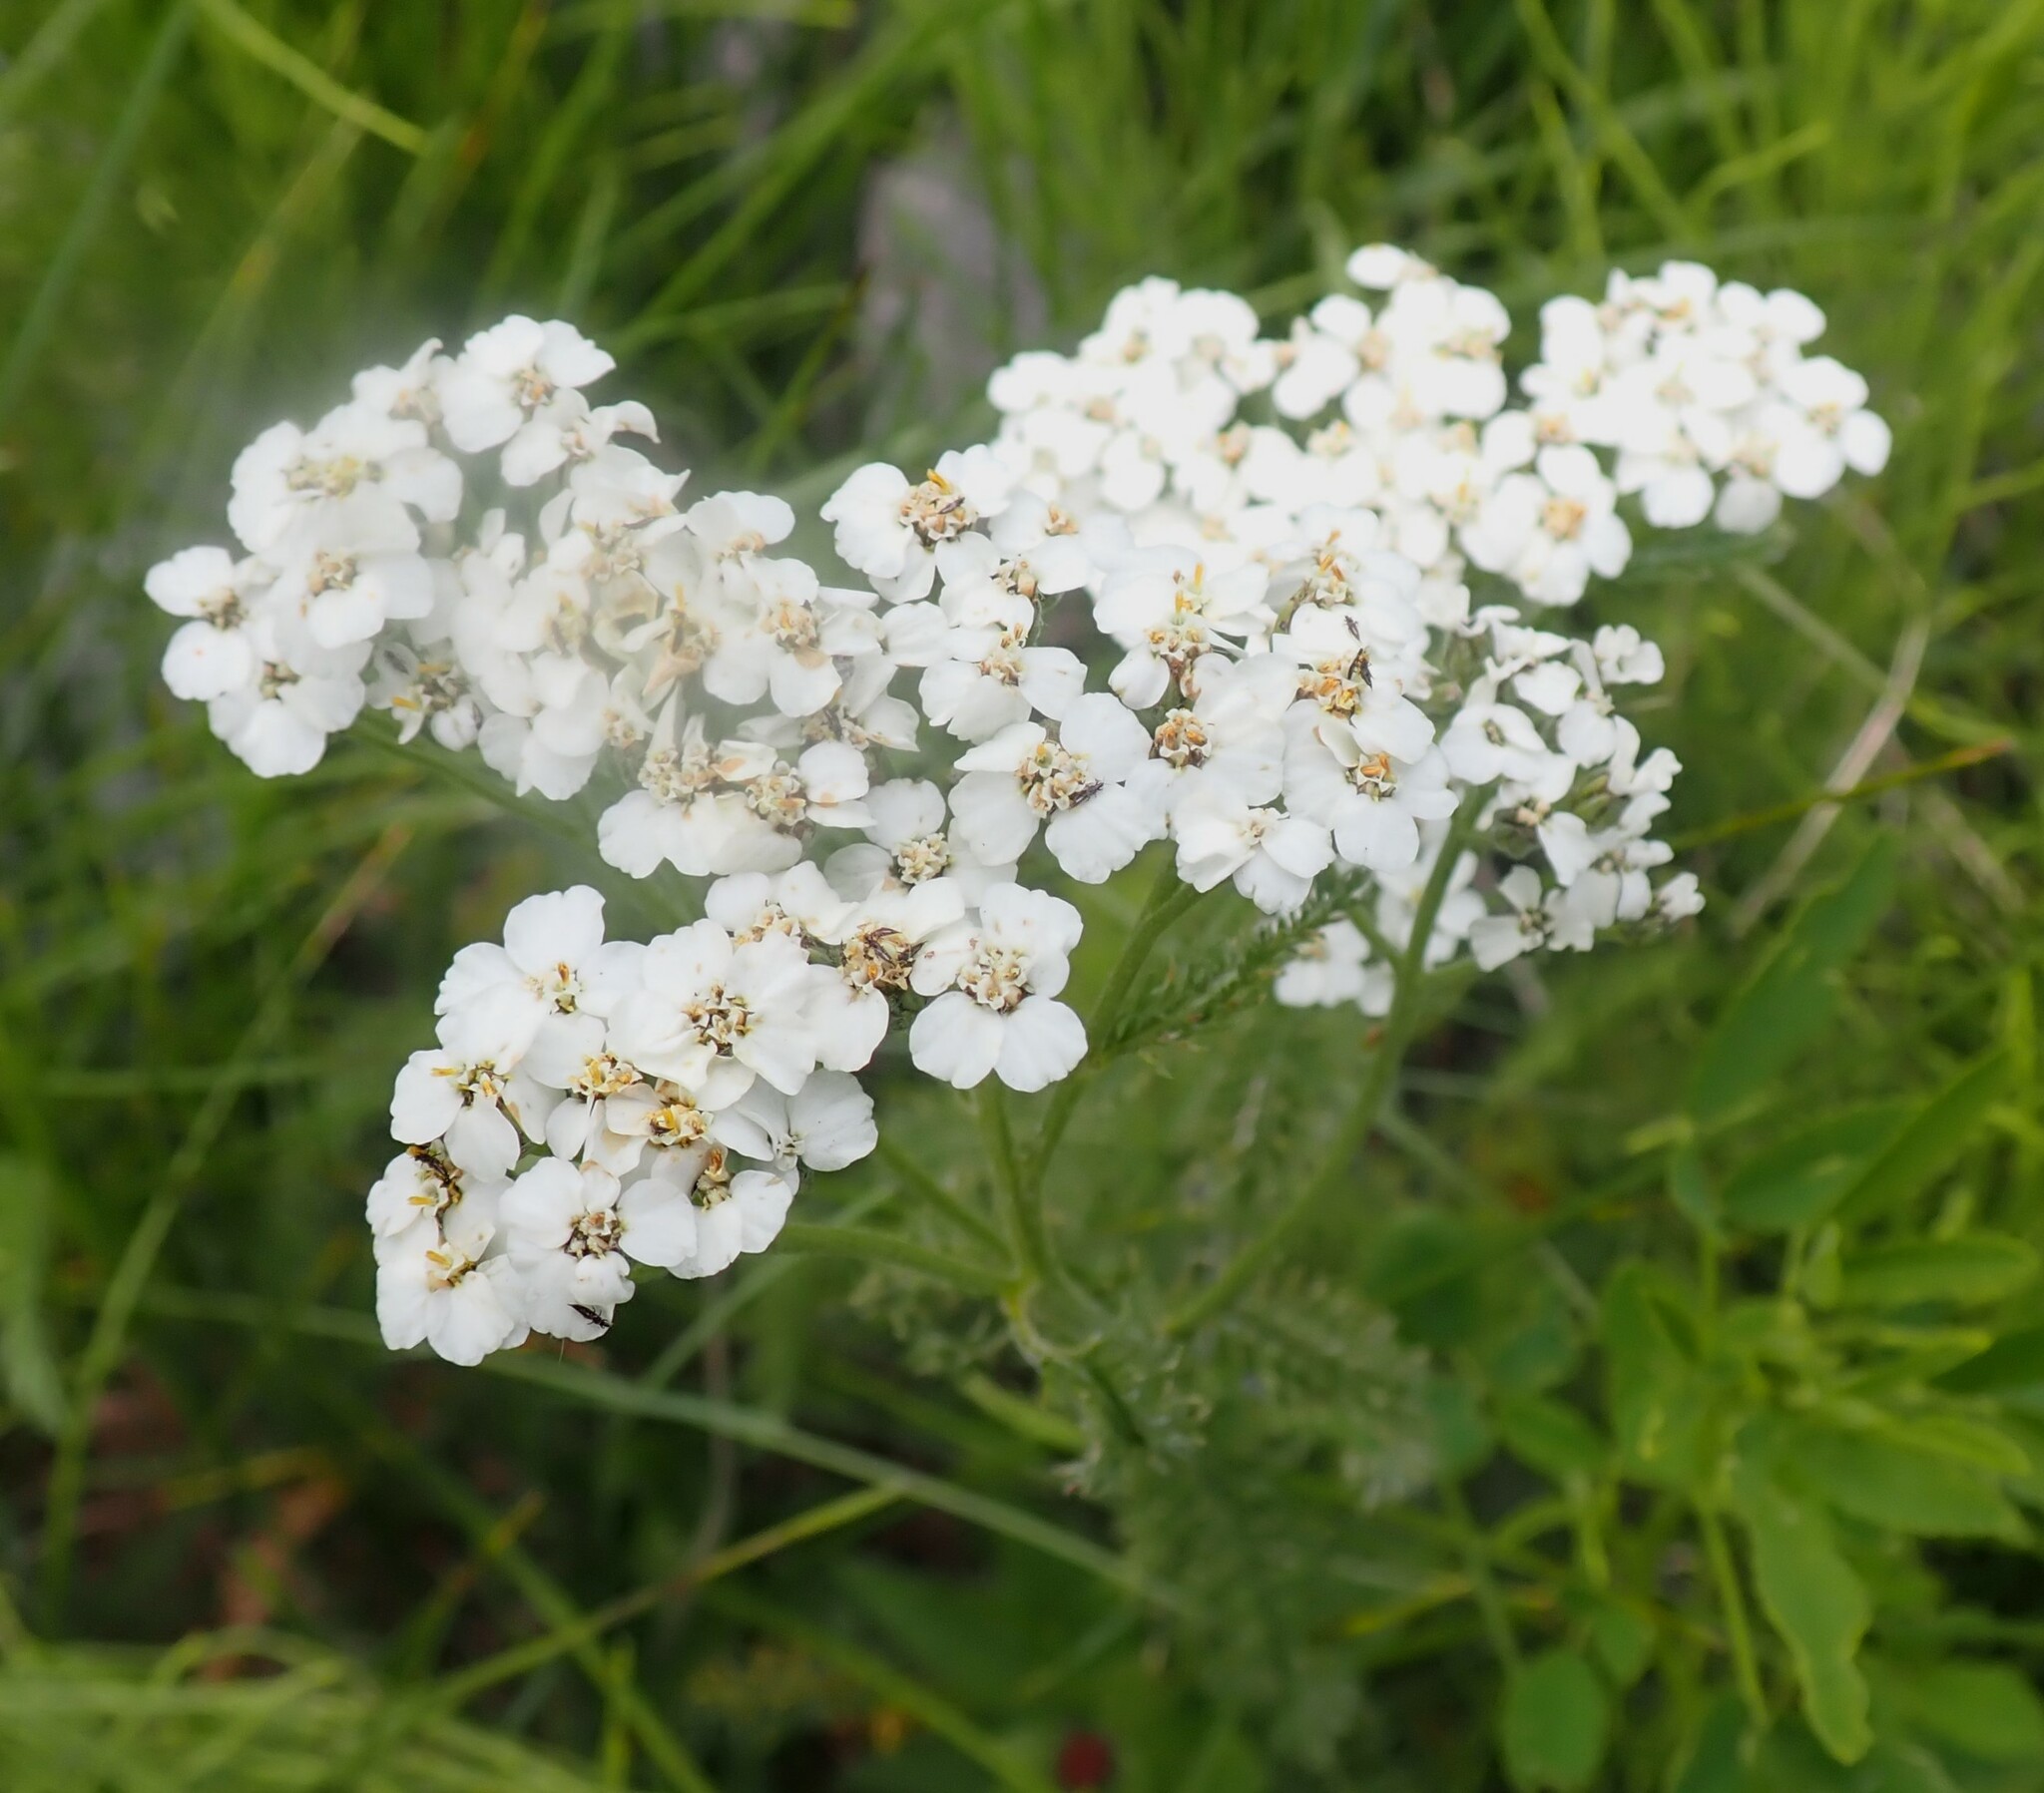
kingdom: Plantae
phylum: Tracheophyta
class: Magnoliopsida
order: Asterales
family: Asteraceae
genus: Achillea
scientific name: Achillea millefolium
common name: Yarrow
